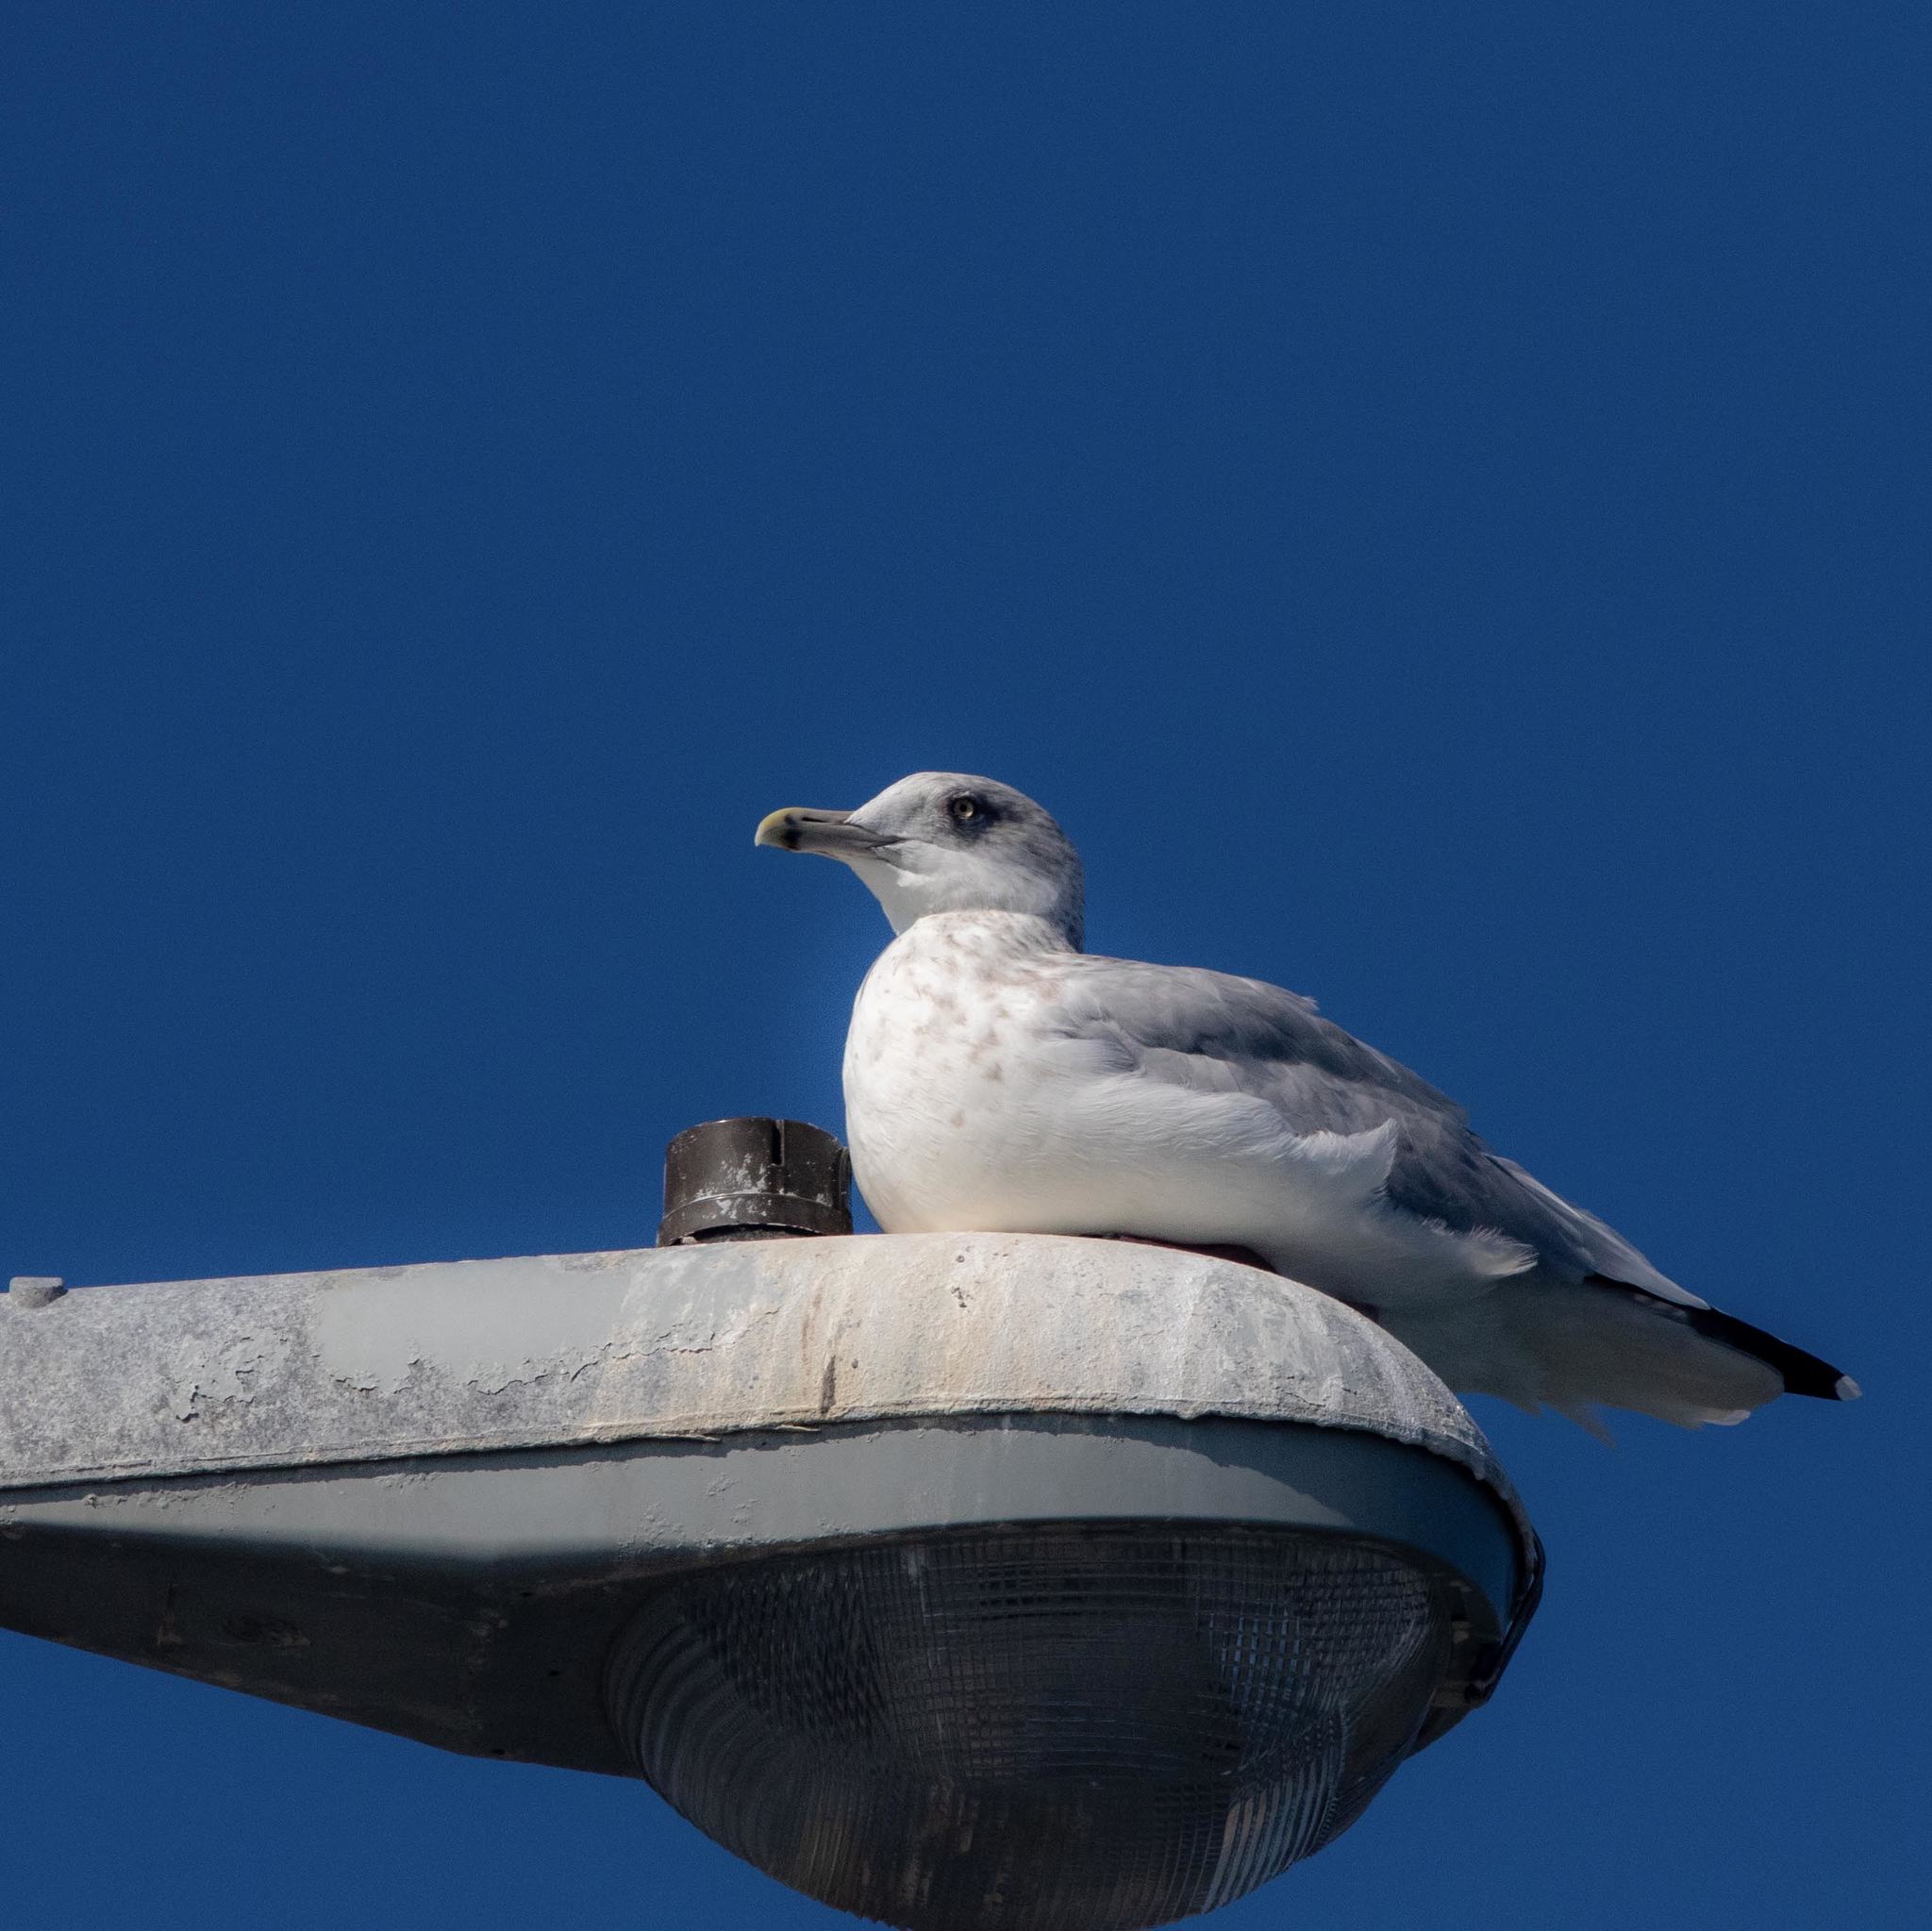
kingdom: Animalia
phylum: Chordata
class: Aves
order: Charadriiformes
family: Laridae
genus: Larus
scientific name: Larus argentatus
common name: Herring gull
